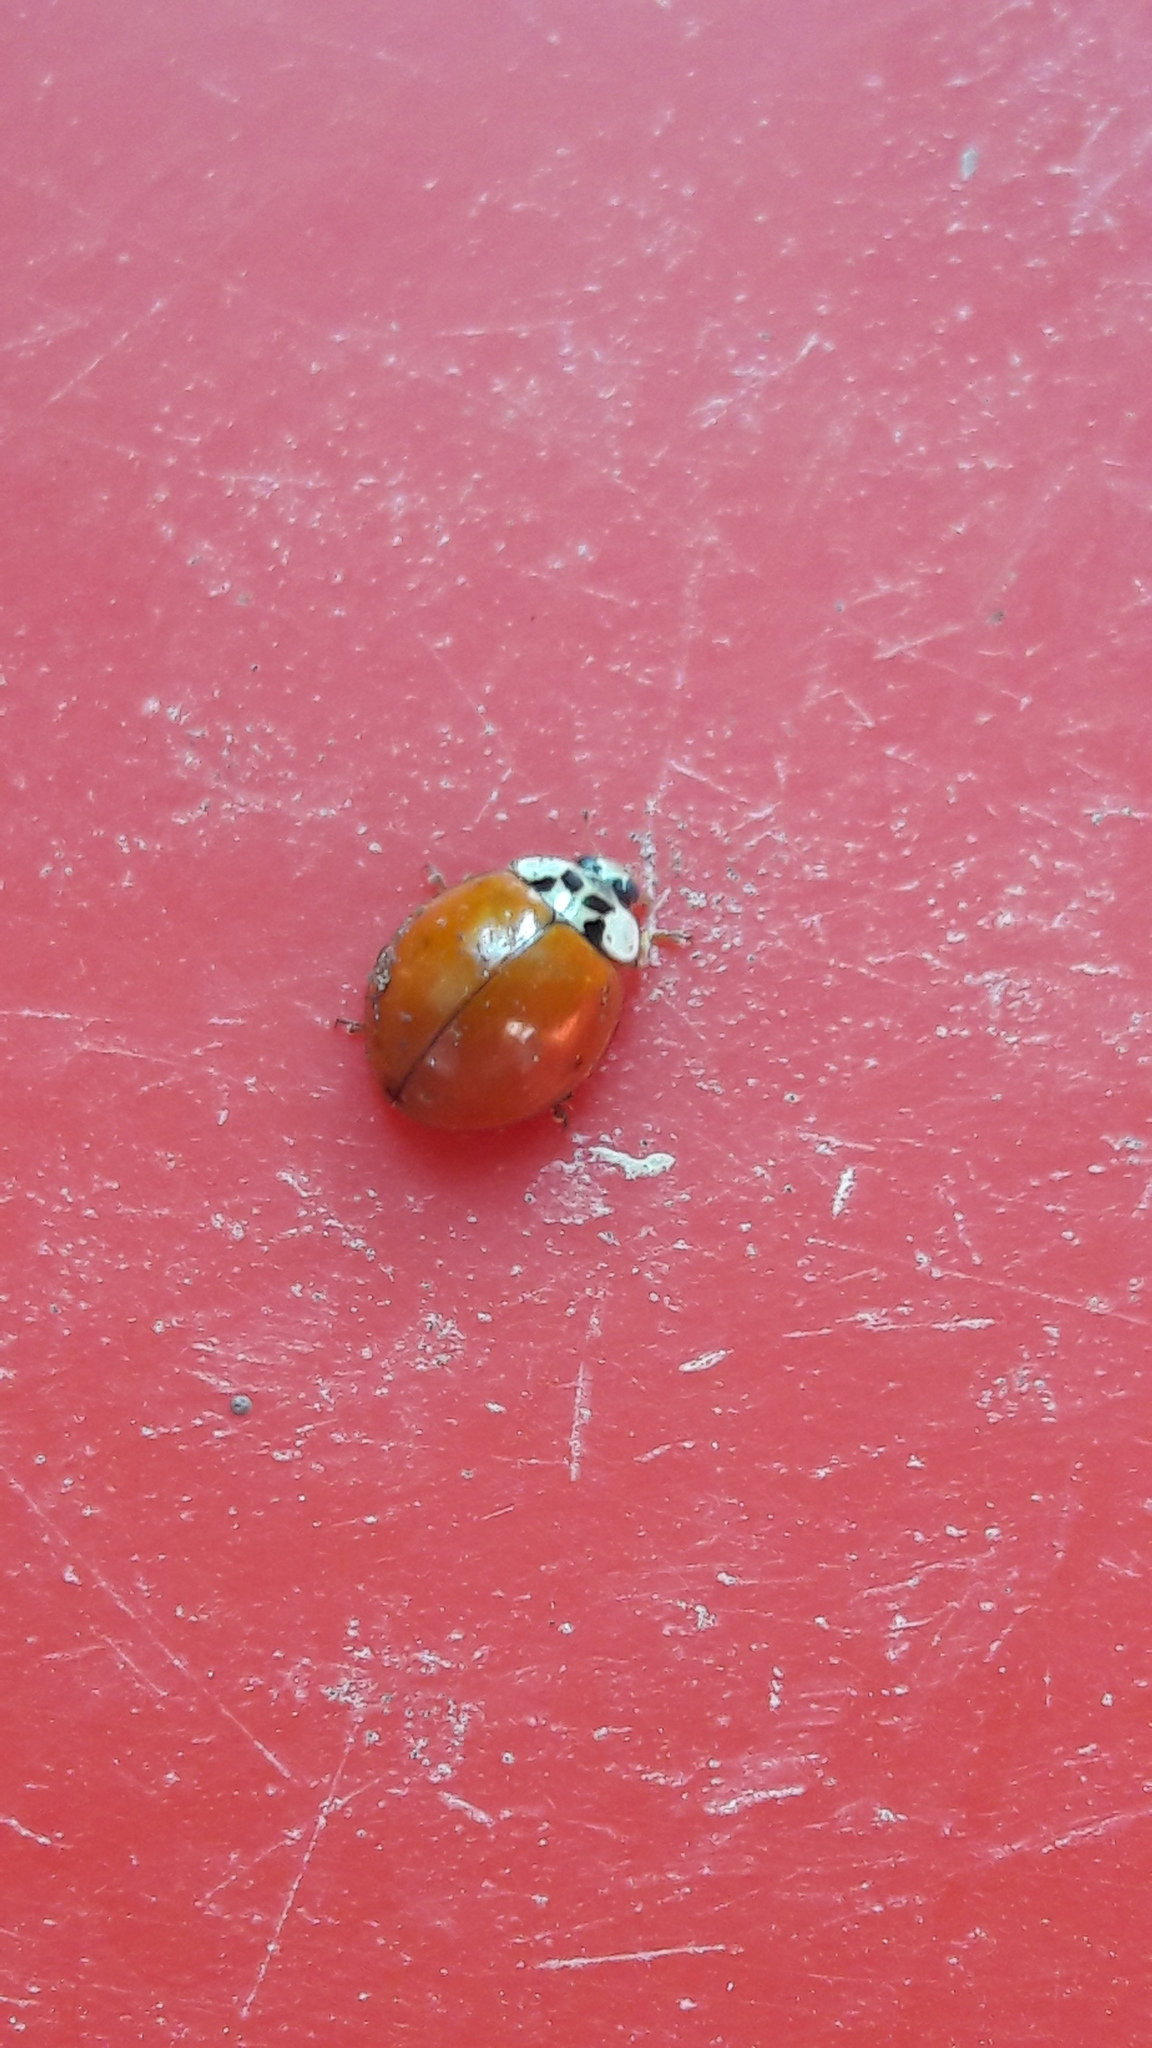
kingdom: Animalia
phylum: Arthropoda
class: Insecta
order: Coleoptera
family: Coccinellidae
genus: Harmonia
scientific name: Harmonia axyridis
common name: Harlequin ladybird
